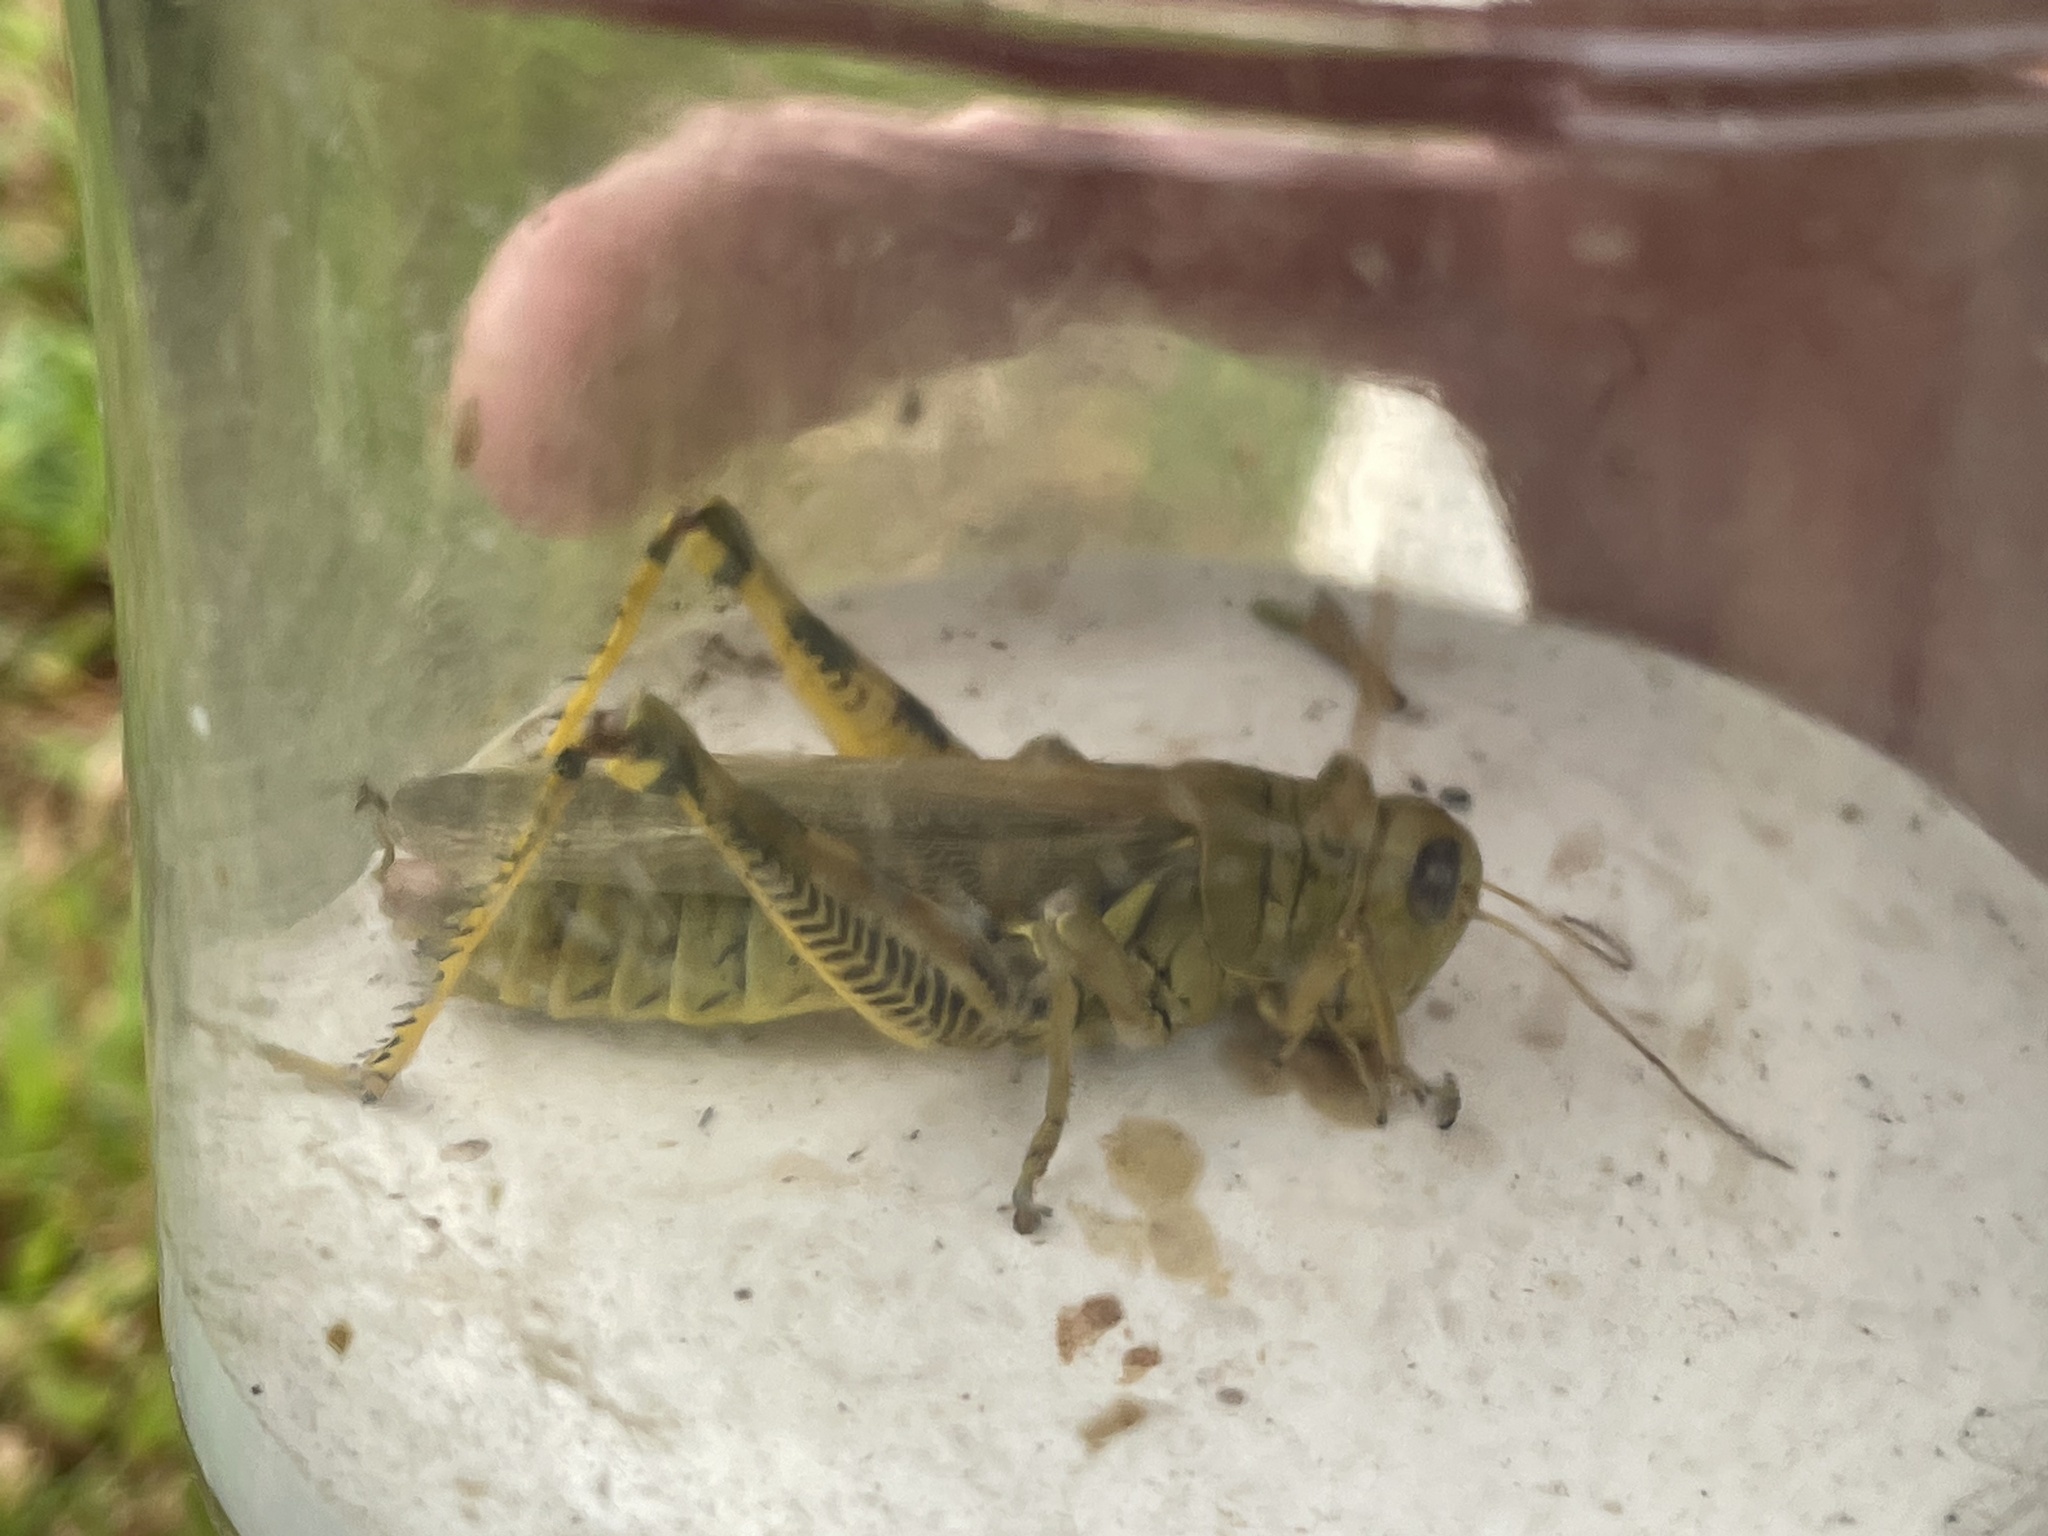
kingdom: Animalia
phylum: Arthropoda
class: Insecta
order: Orthoptera
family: Acrididae
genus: Melanoplus
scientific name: Melanoplus differentialis
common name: Differential grasshopper
